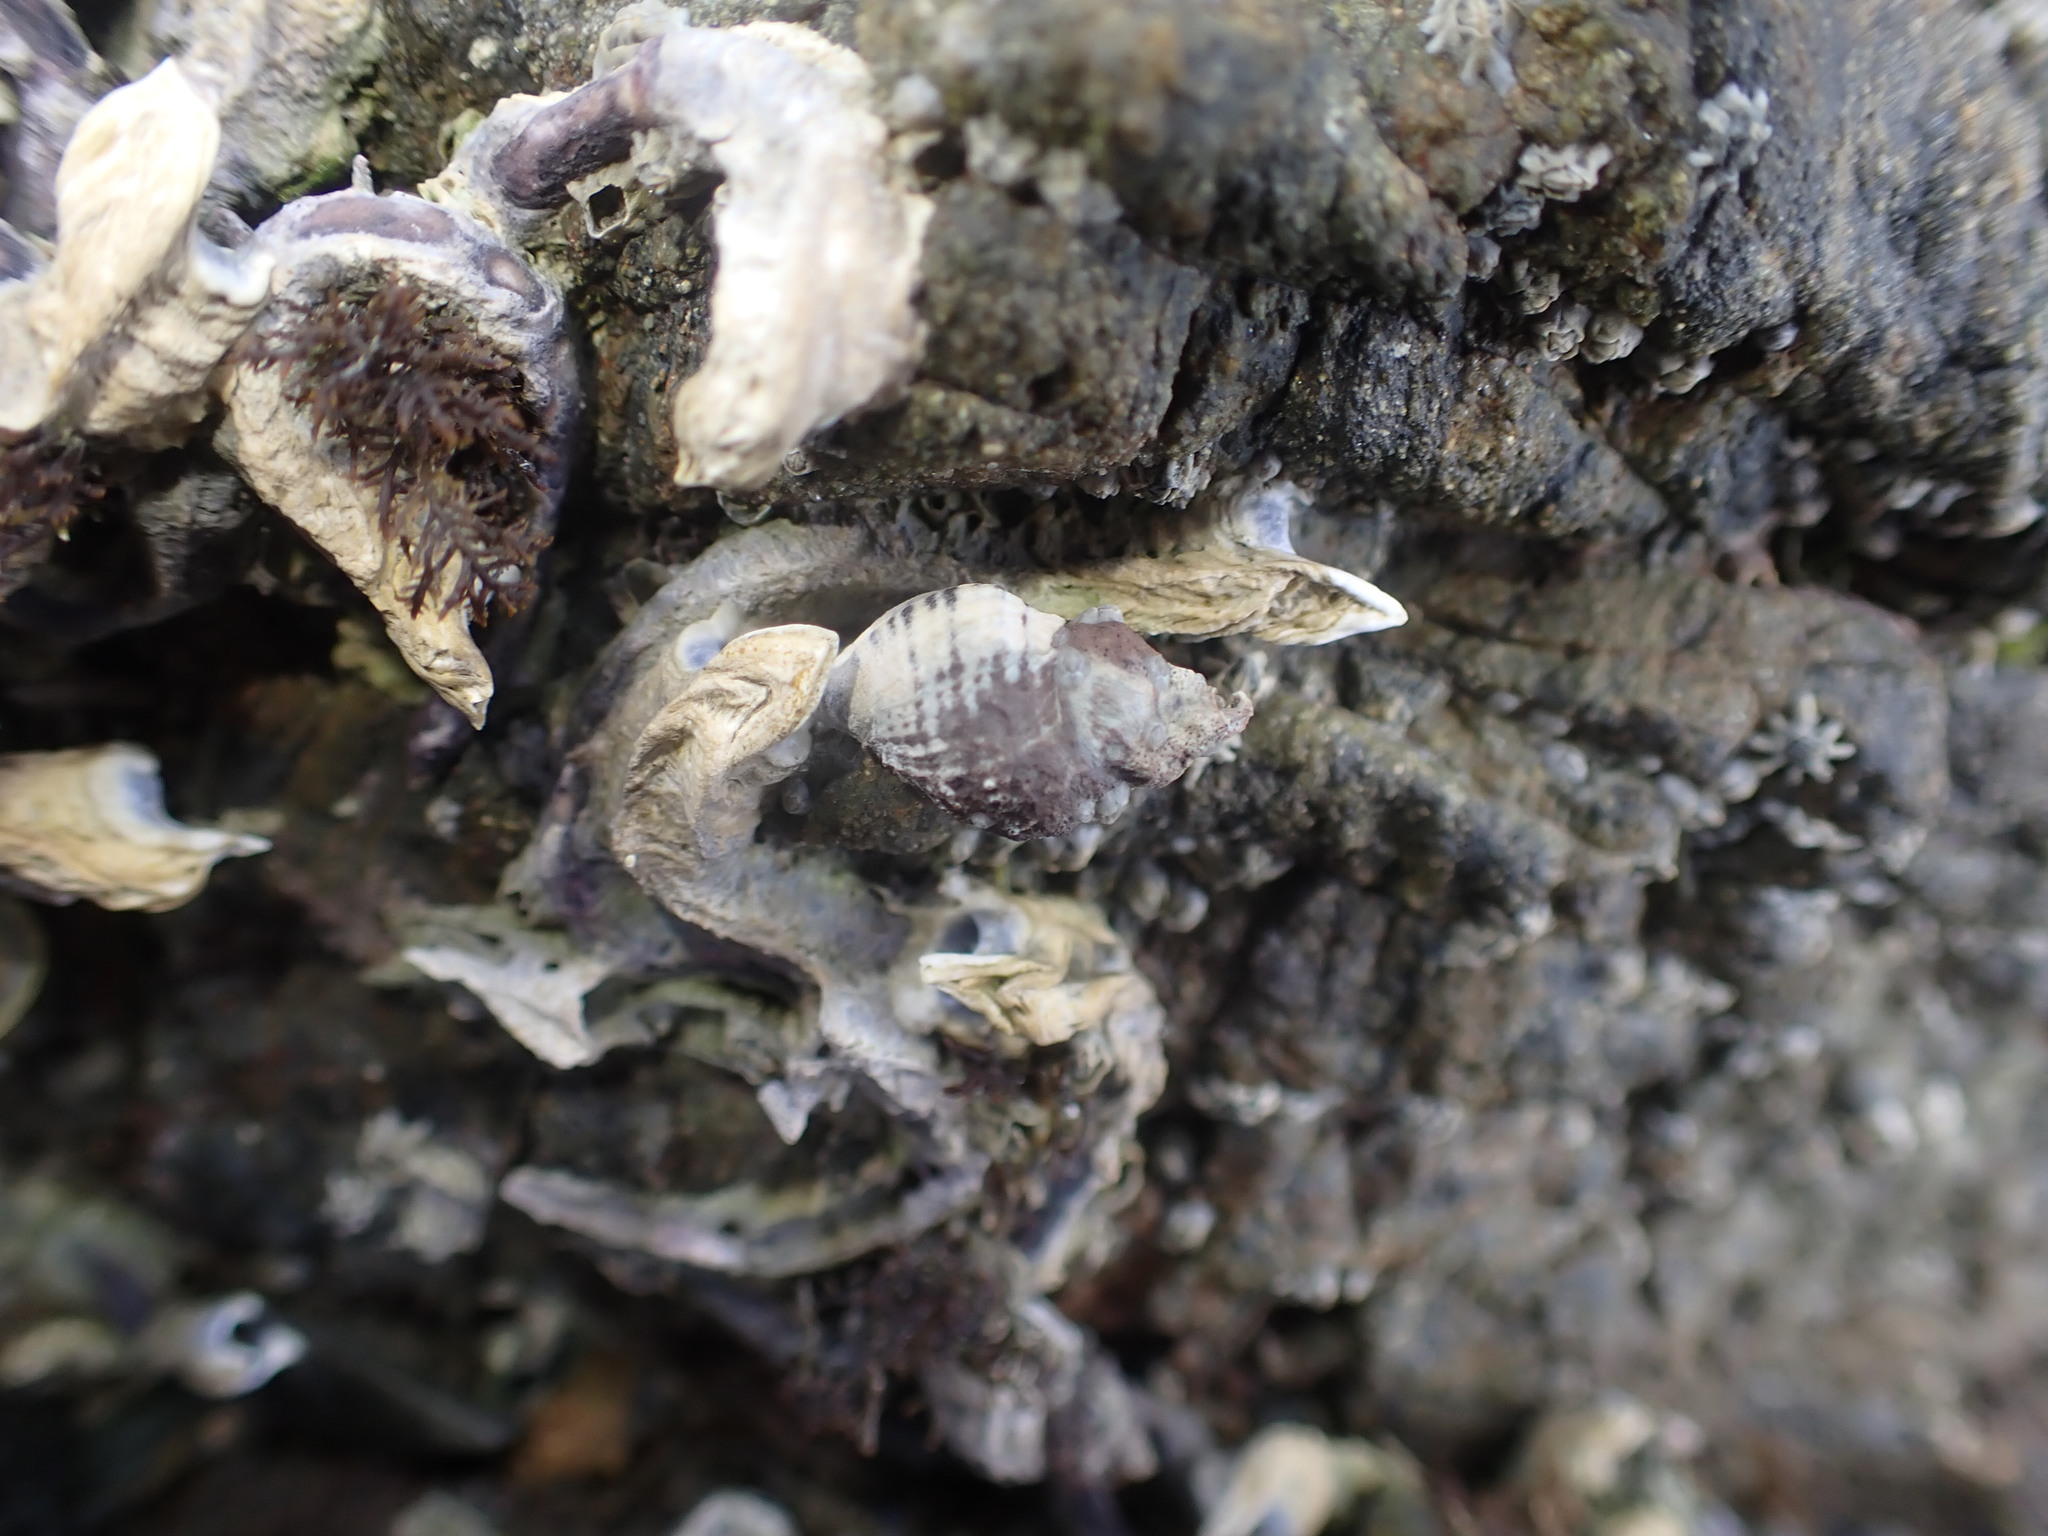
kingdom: Animalia
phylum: Mollusca
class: Gastropoda
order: Neogastropoda
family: Muricidae
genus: Haustrum
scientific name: Haustrum albomarginatum
